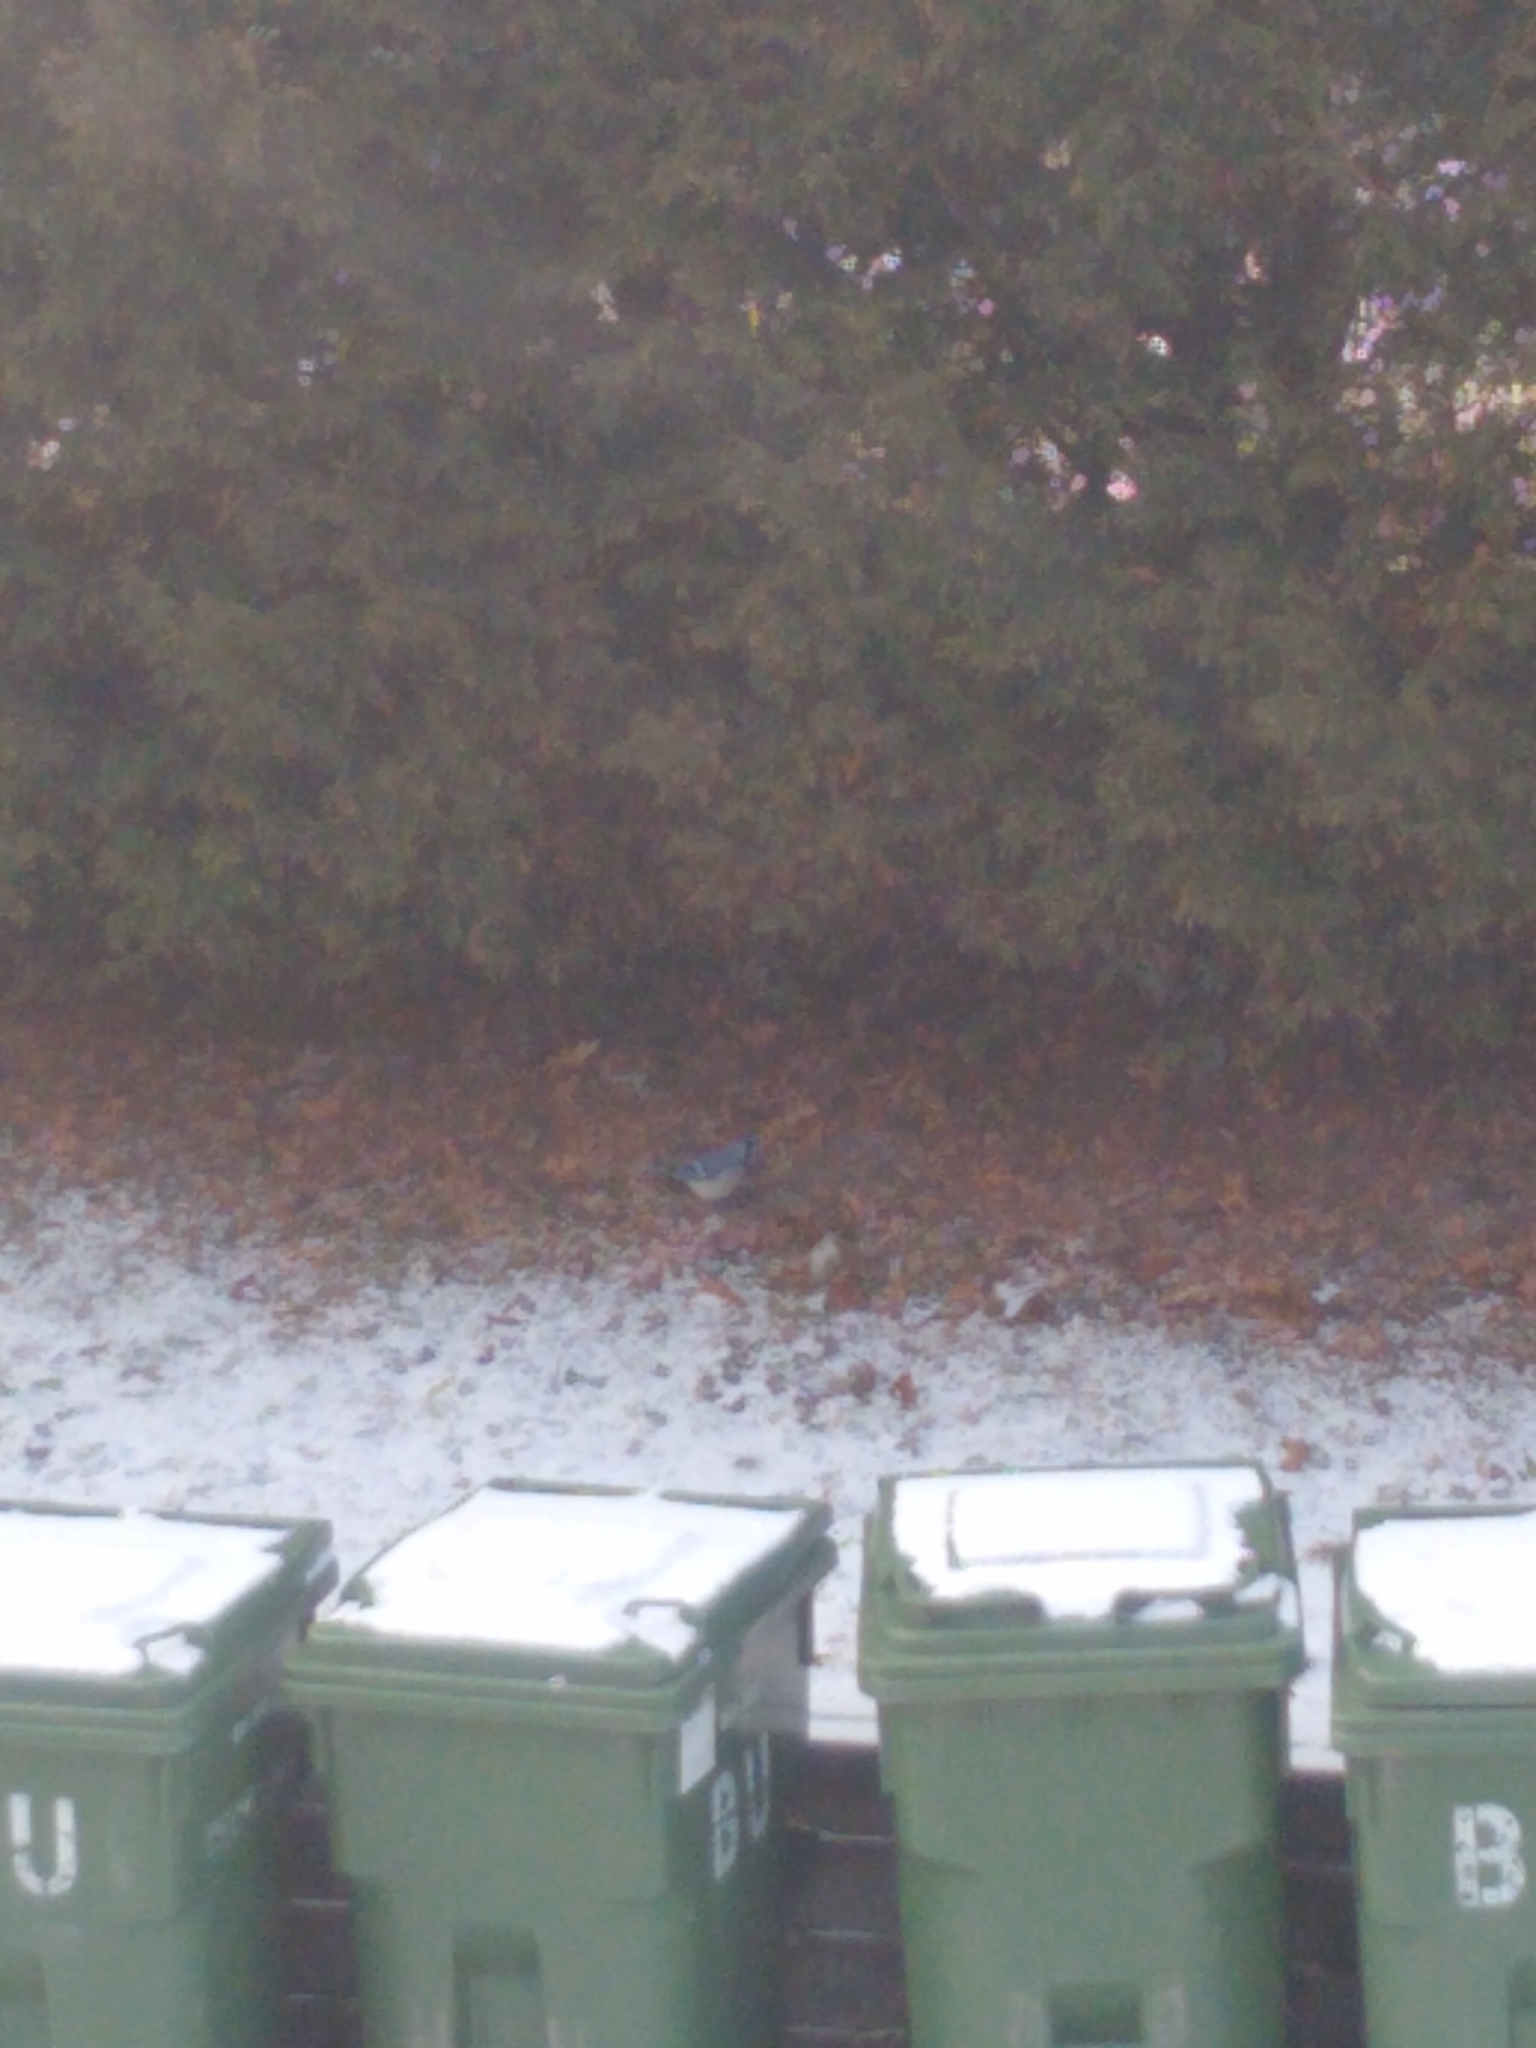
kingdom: Animalia
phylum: Chordata
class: Aves
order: Passeriformes
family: Corvidae
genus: Cyanocitta
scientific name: Cyanocitta cristata
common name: Blue jay
